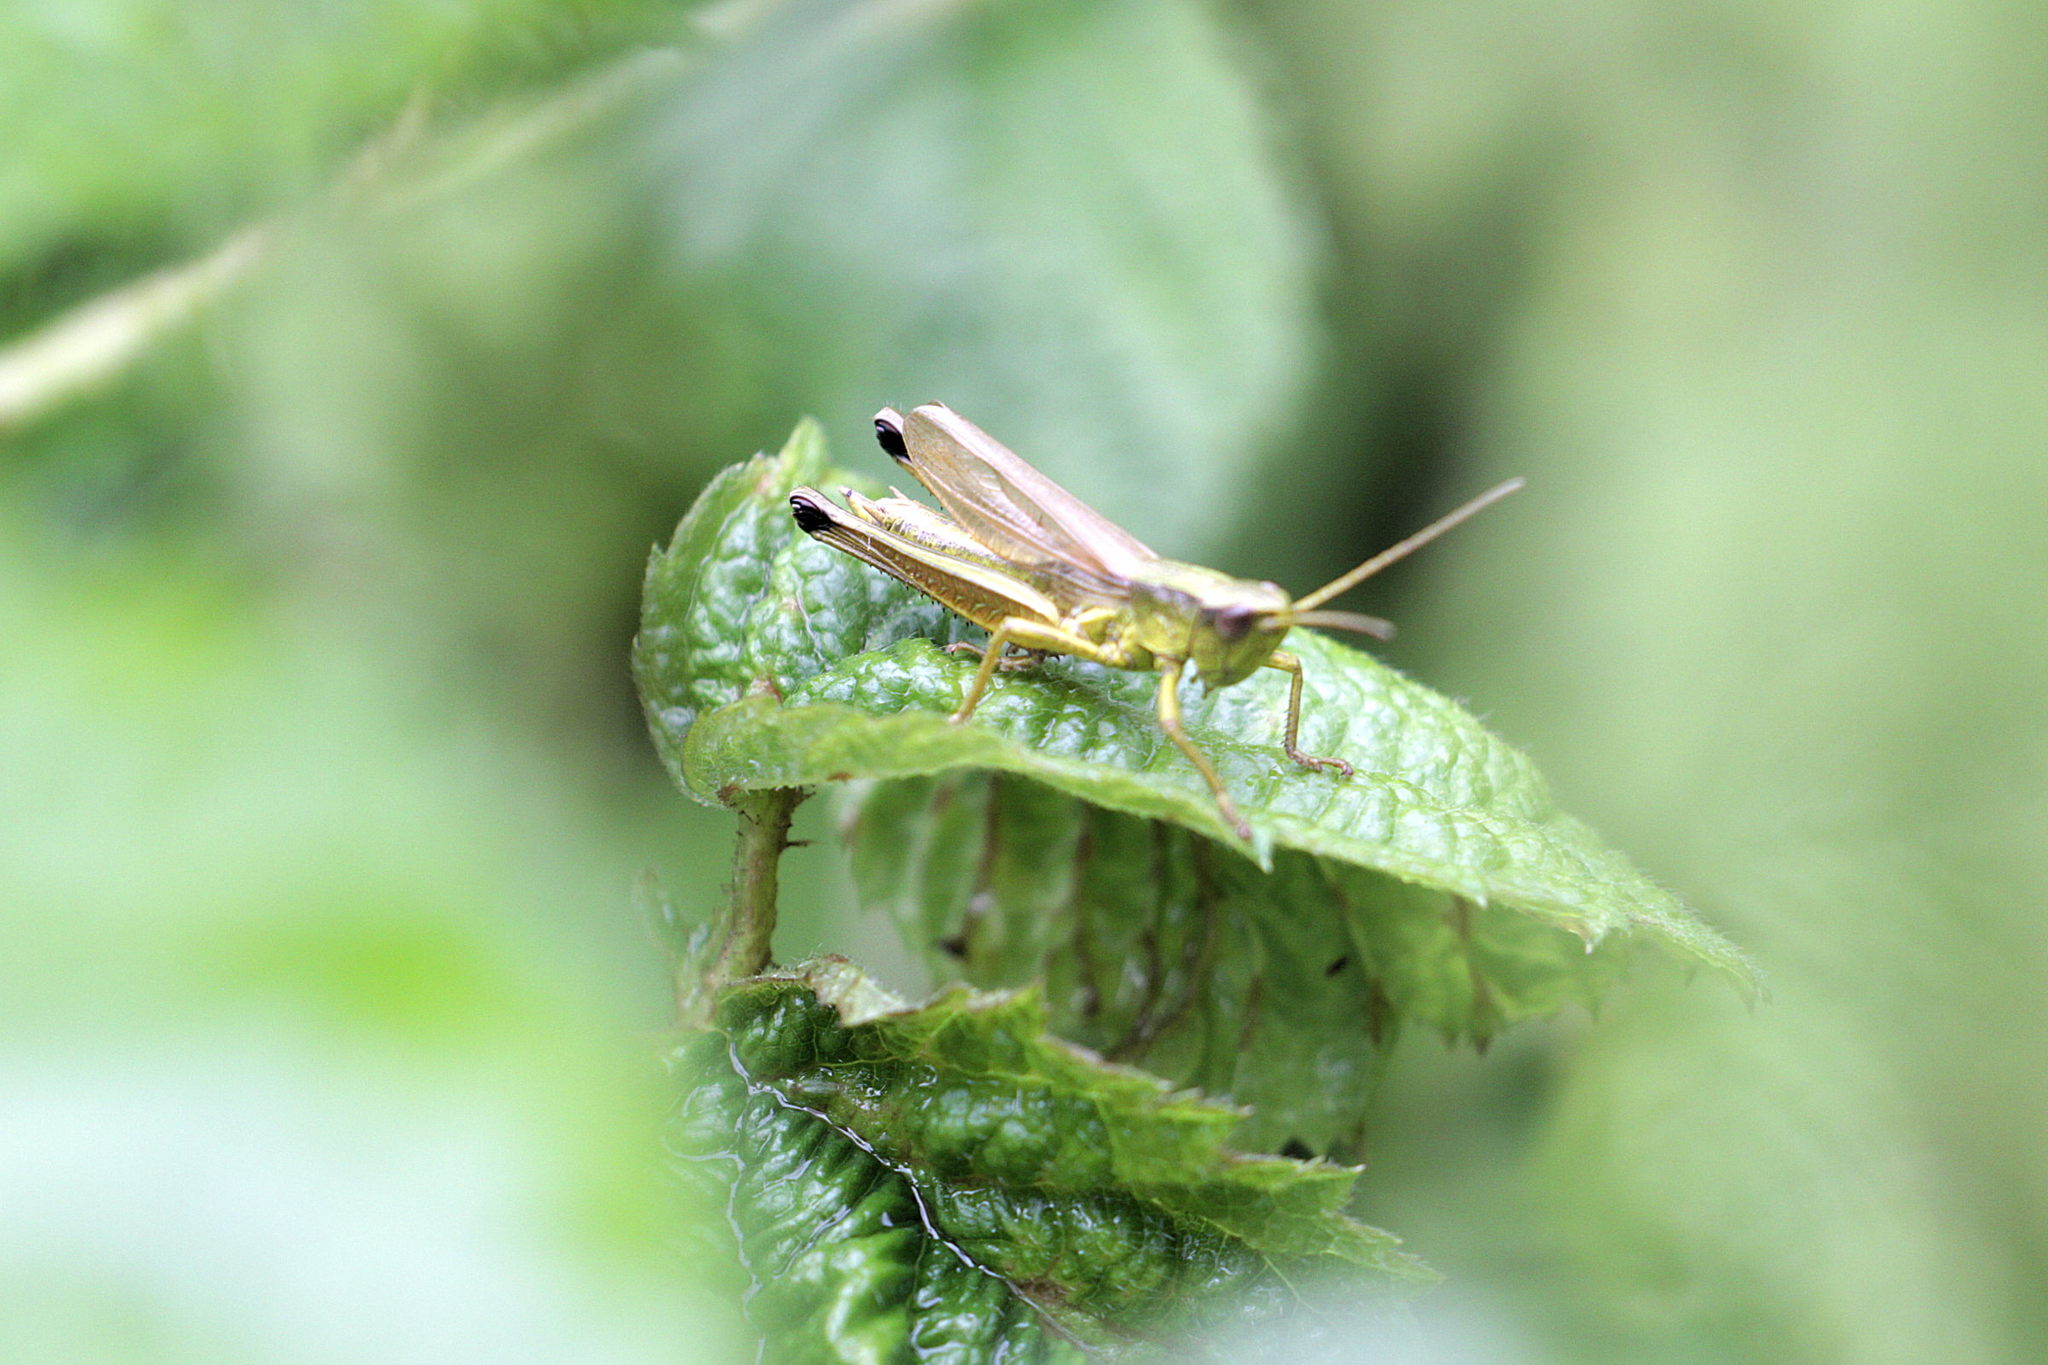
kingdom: Animalia
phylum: Arthropoda
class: Insecta
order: Orthoptera
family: Acrididae
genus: Chrysochraon
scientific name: Chrysochraon dispar
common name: Large gold grasshopper
